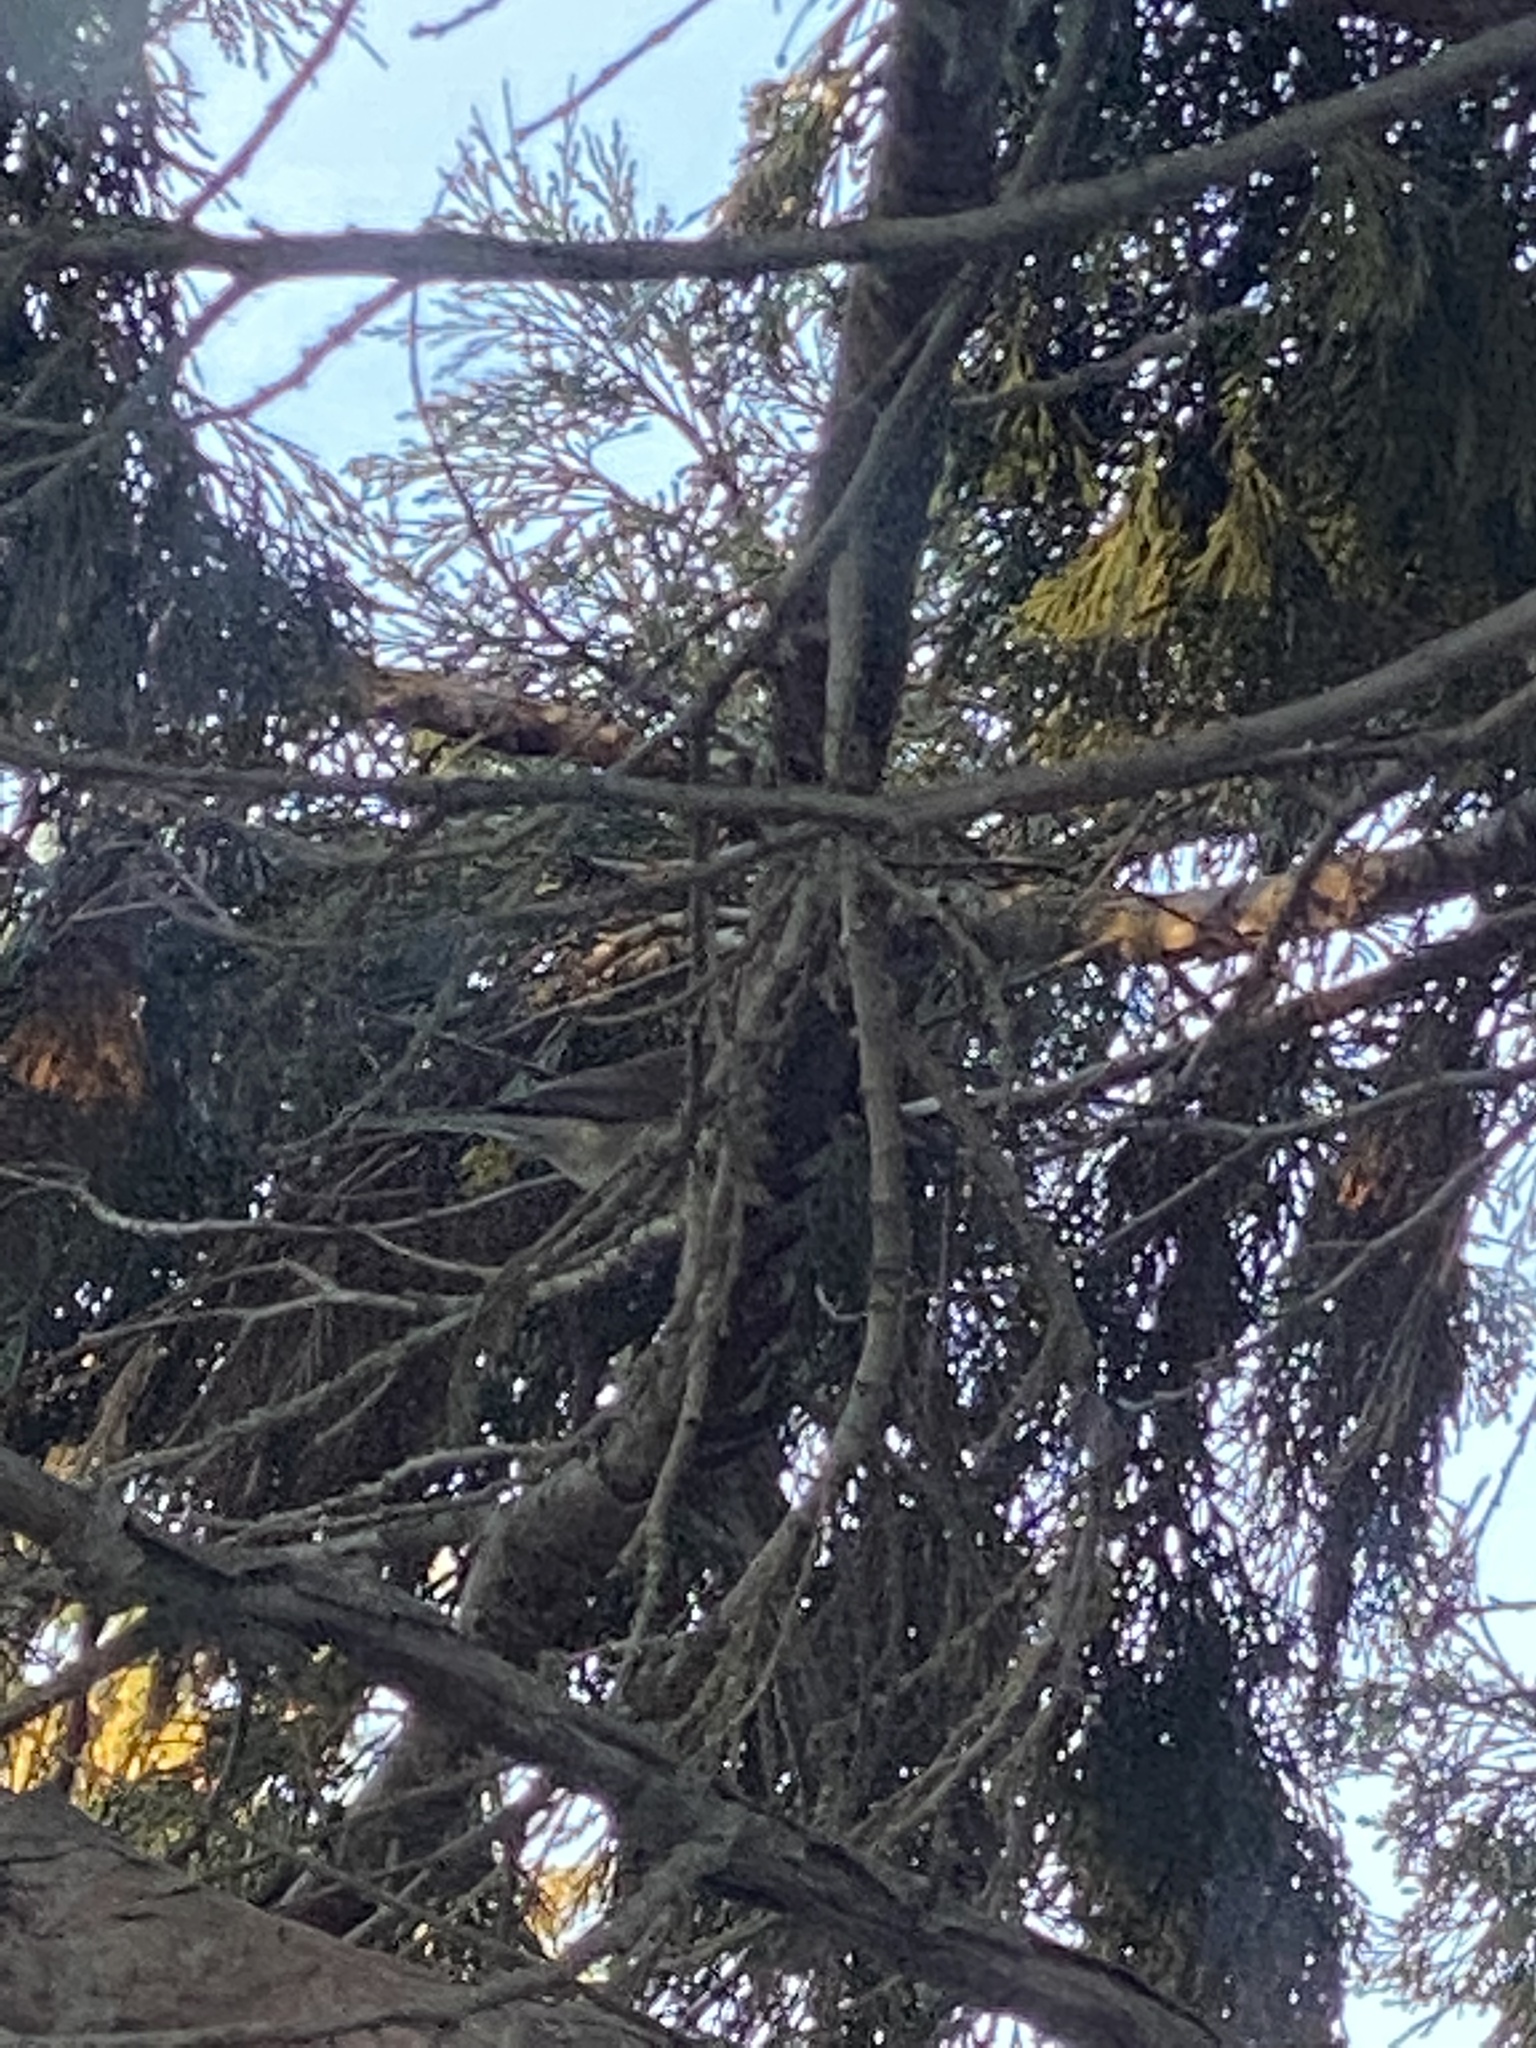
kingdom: Animalia
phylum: Chordata
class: Aves
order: Passeriformes
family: Passerellidae
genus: Junco
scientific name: Junco hyemalis
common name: Dark-eyed junco
